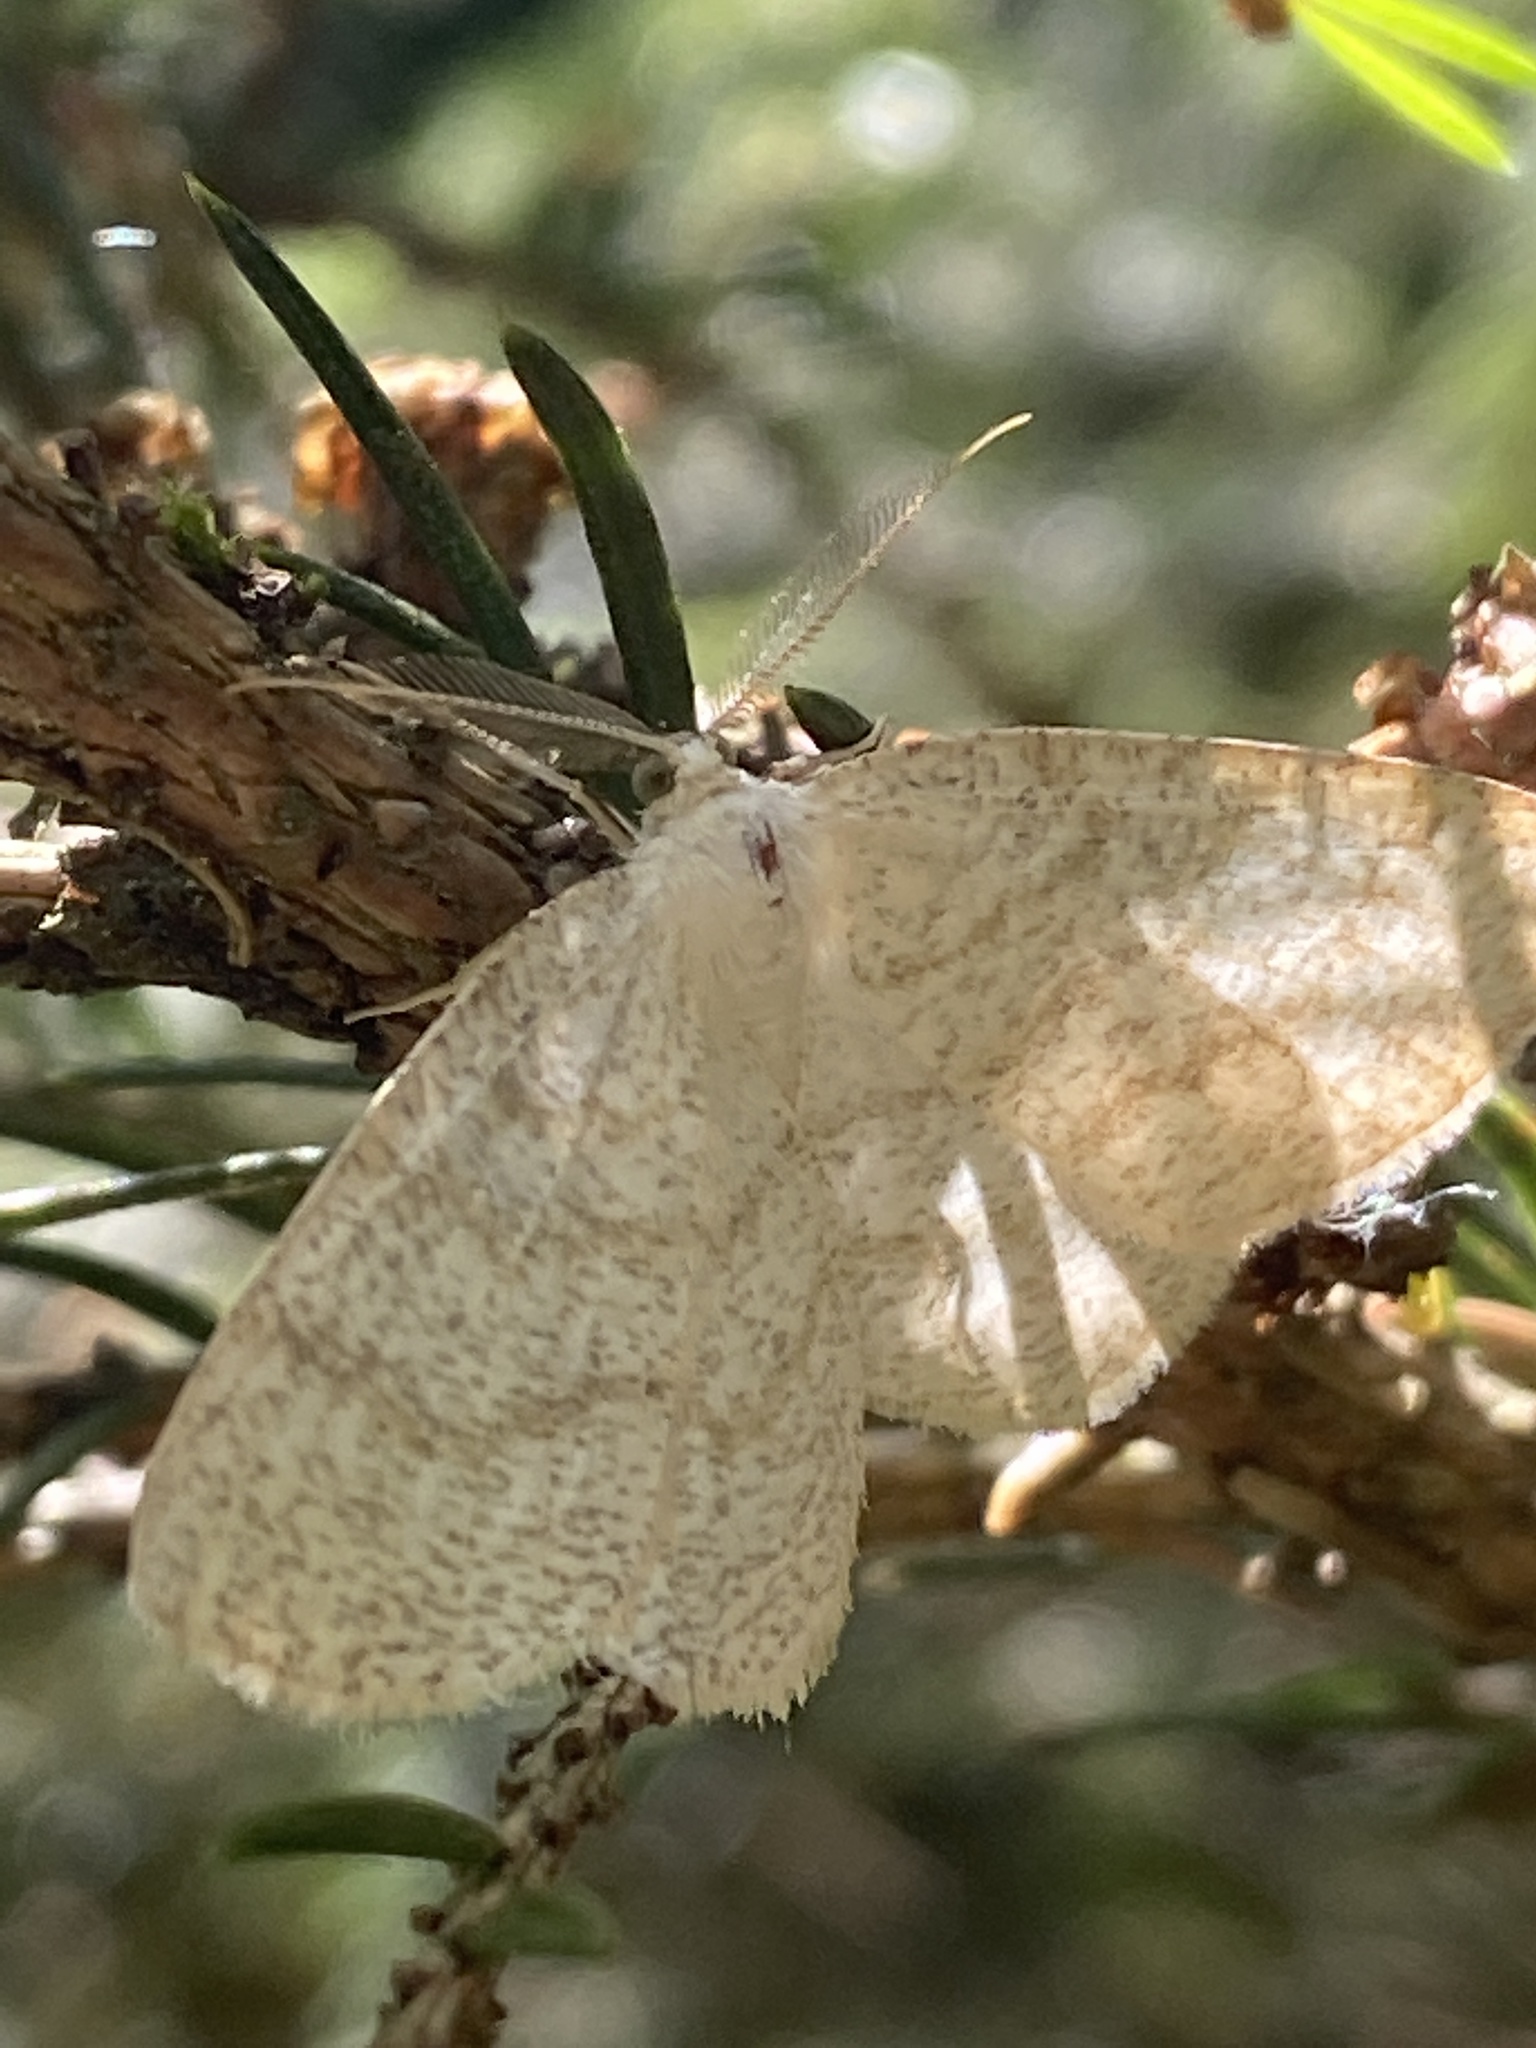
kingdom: Animalia
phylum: Arthropoda
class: Insecta
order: Lepidoptera
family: Geometridae
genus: Cabera
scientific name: Cabera exanthemata
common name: Common wave
